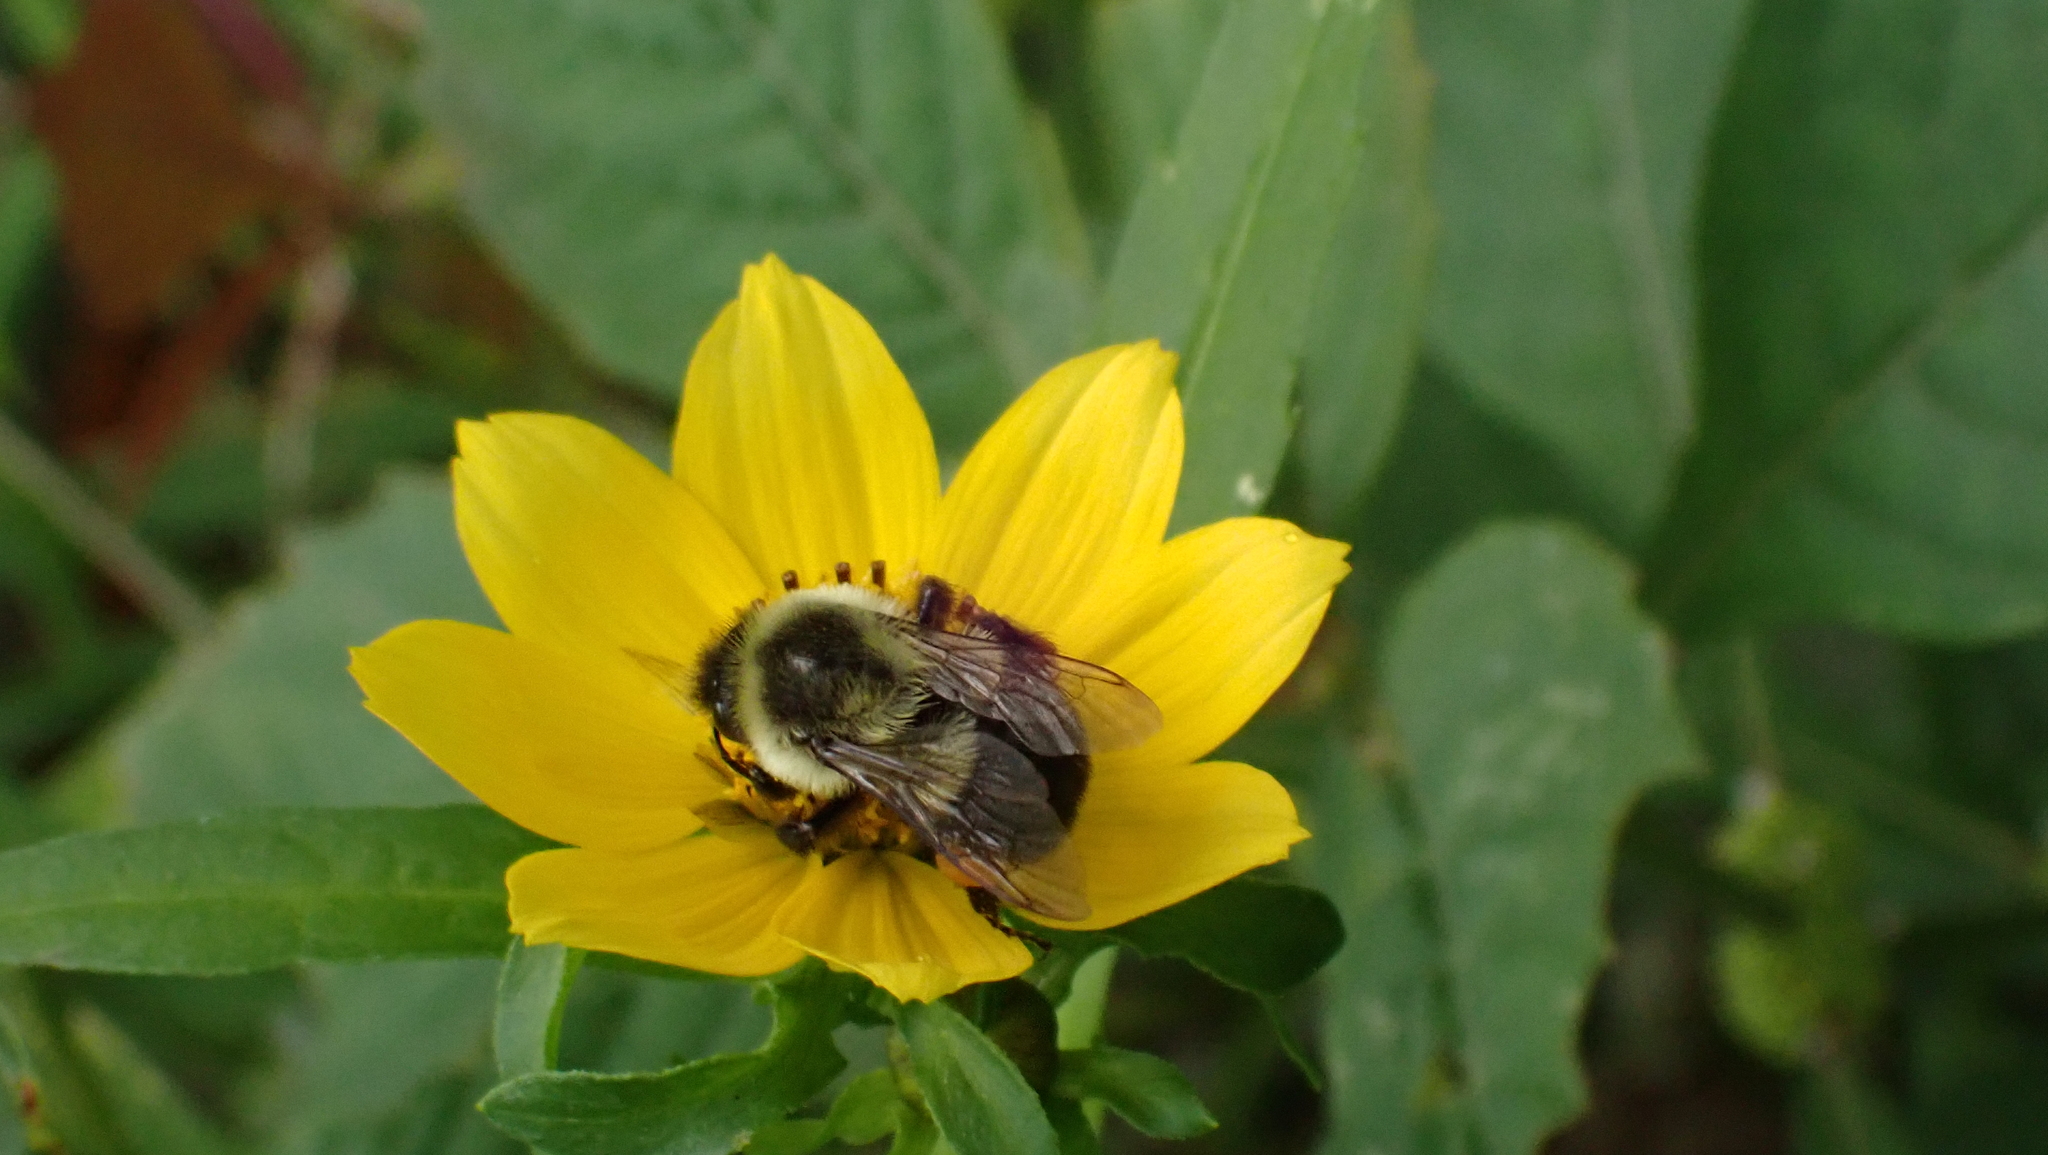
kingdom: Animalia
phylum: Arthropoda
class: Insecta
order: Hymenoptera
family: Apidae
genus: Bombus
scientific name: Bombus impatiens
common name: Common eastern bumble bee
